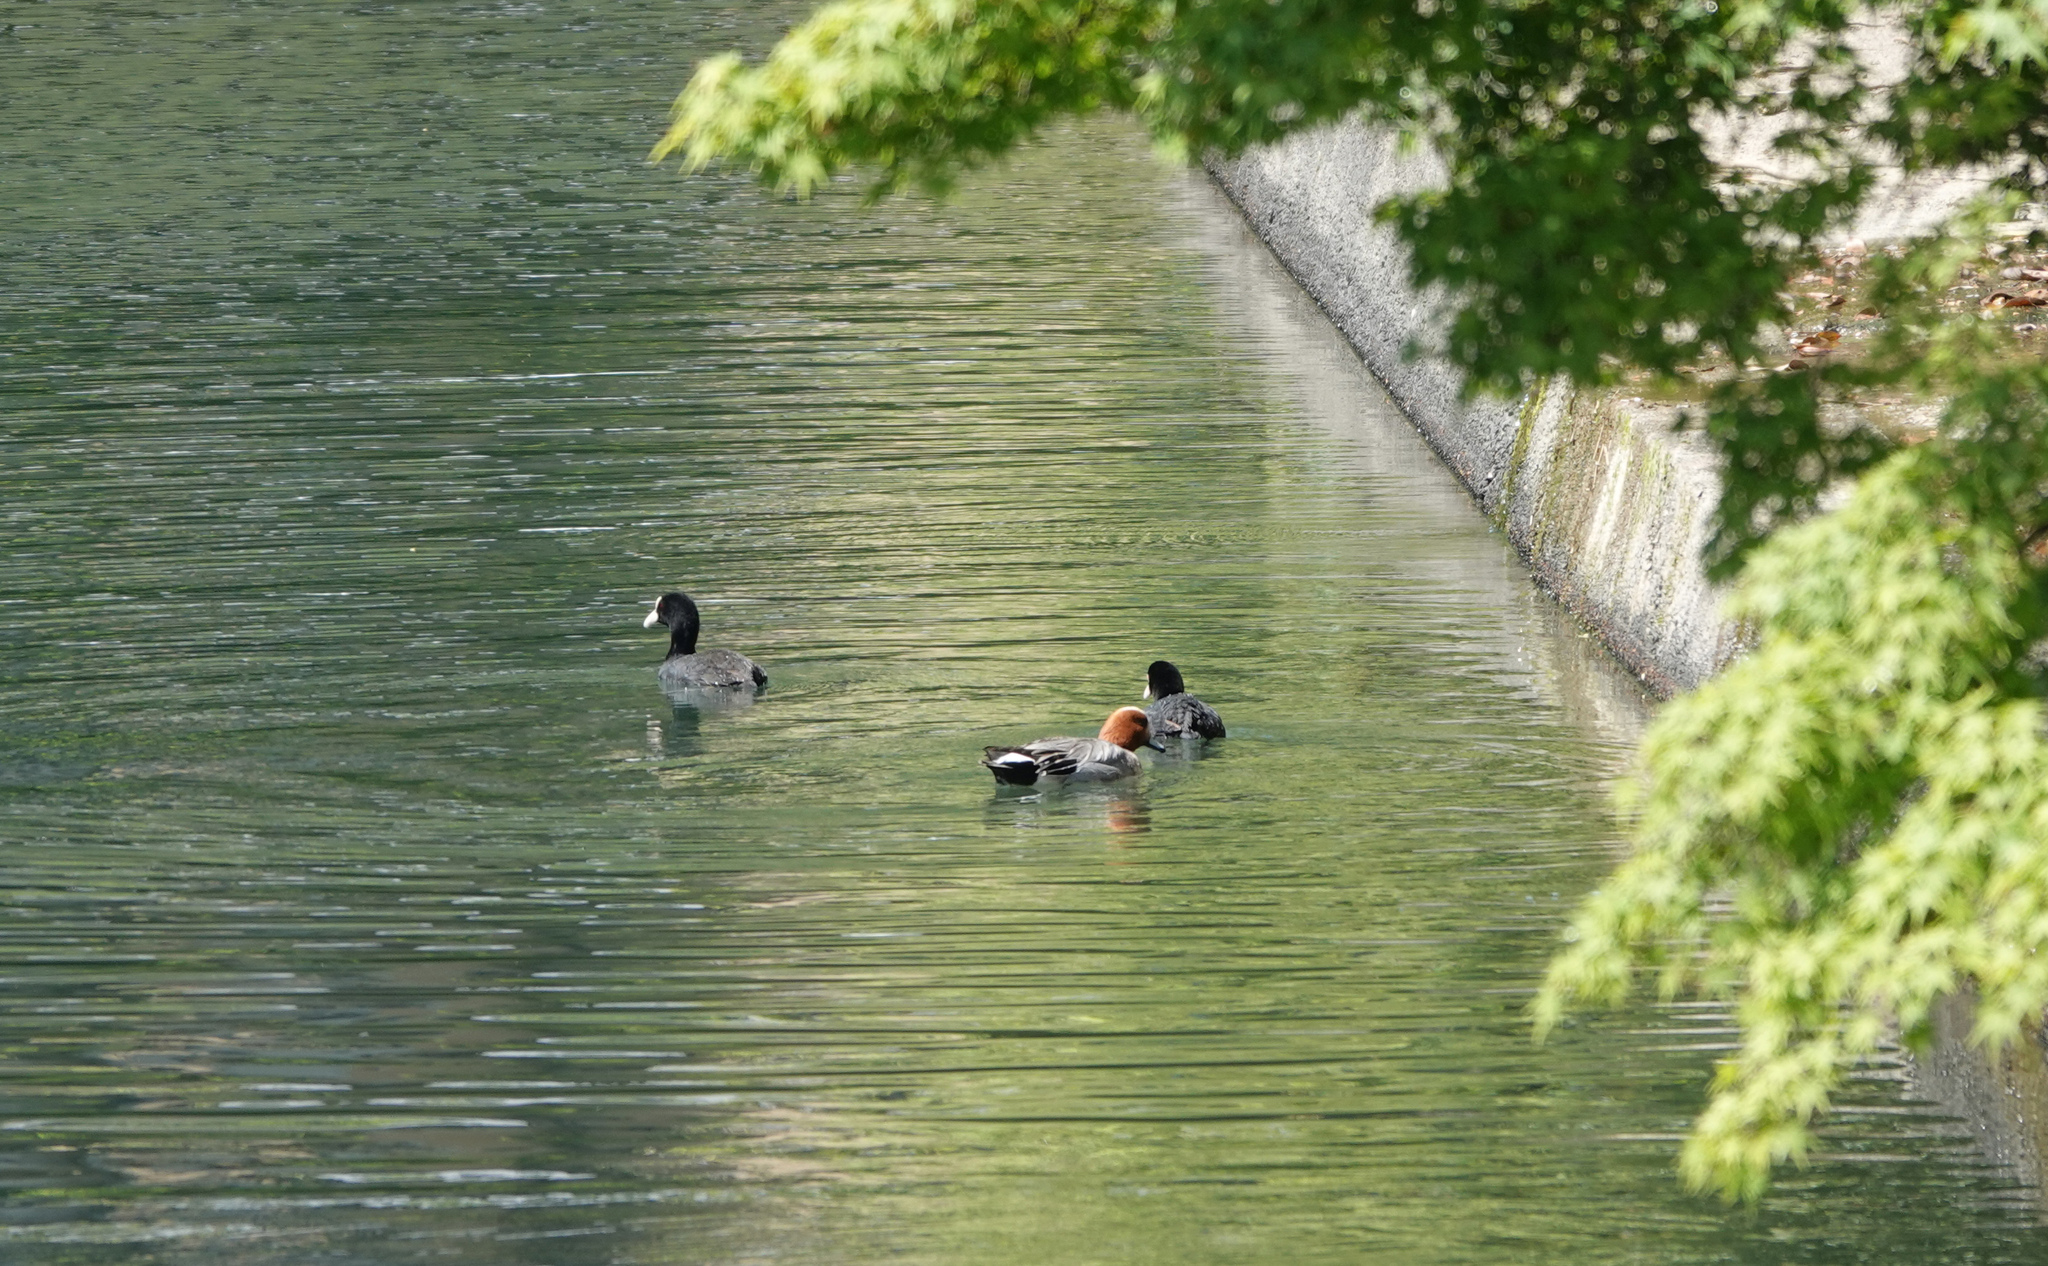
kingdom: Animalia
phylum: Chordata
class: Aves
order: Gruiformes
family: Rallidae
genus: Fulica
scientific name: Fulica atra
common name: Eurasian coot
